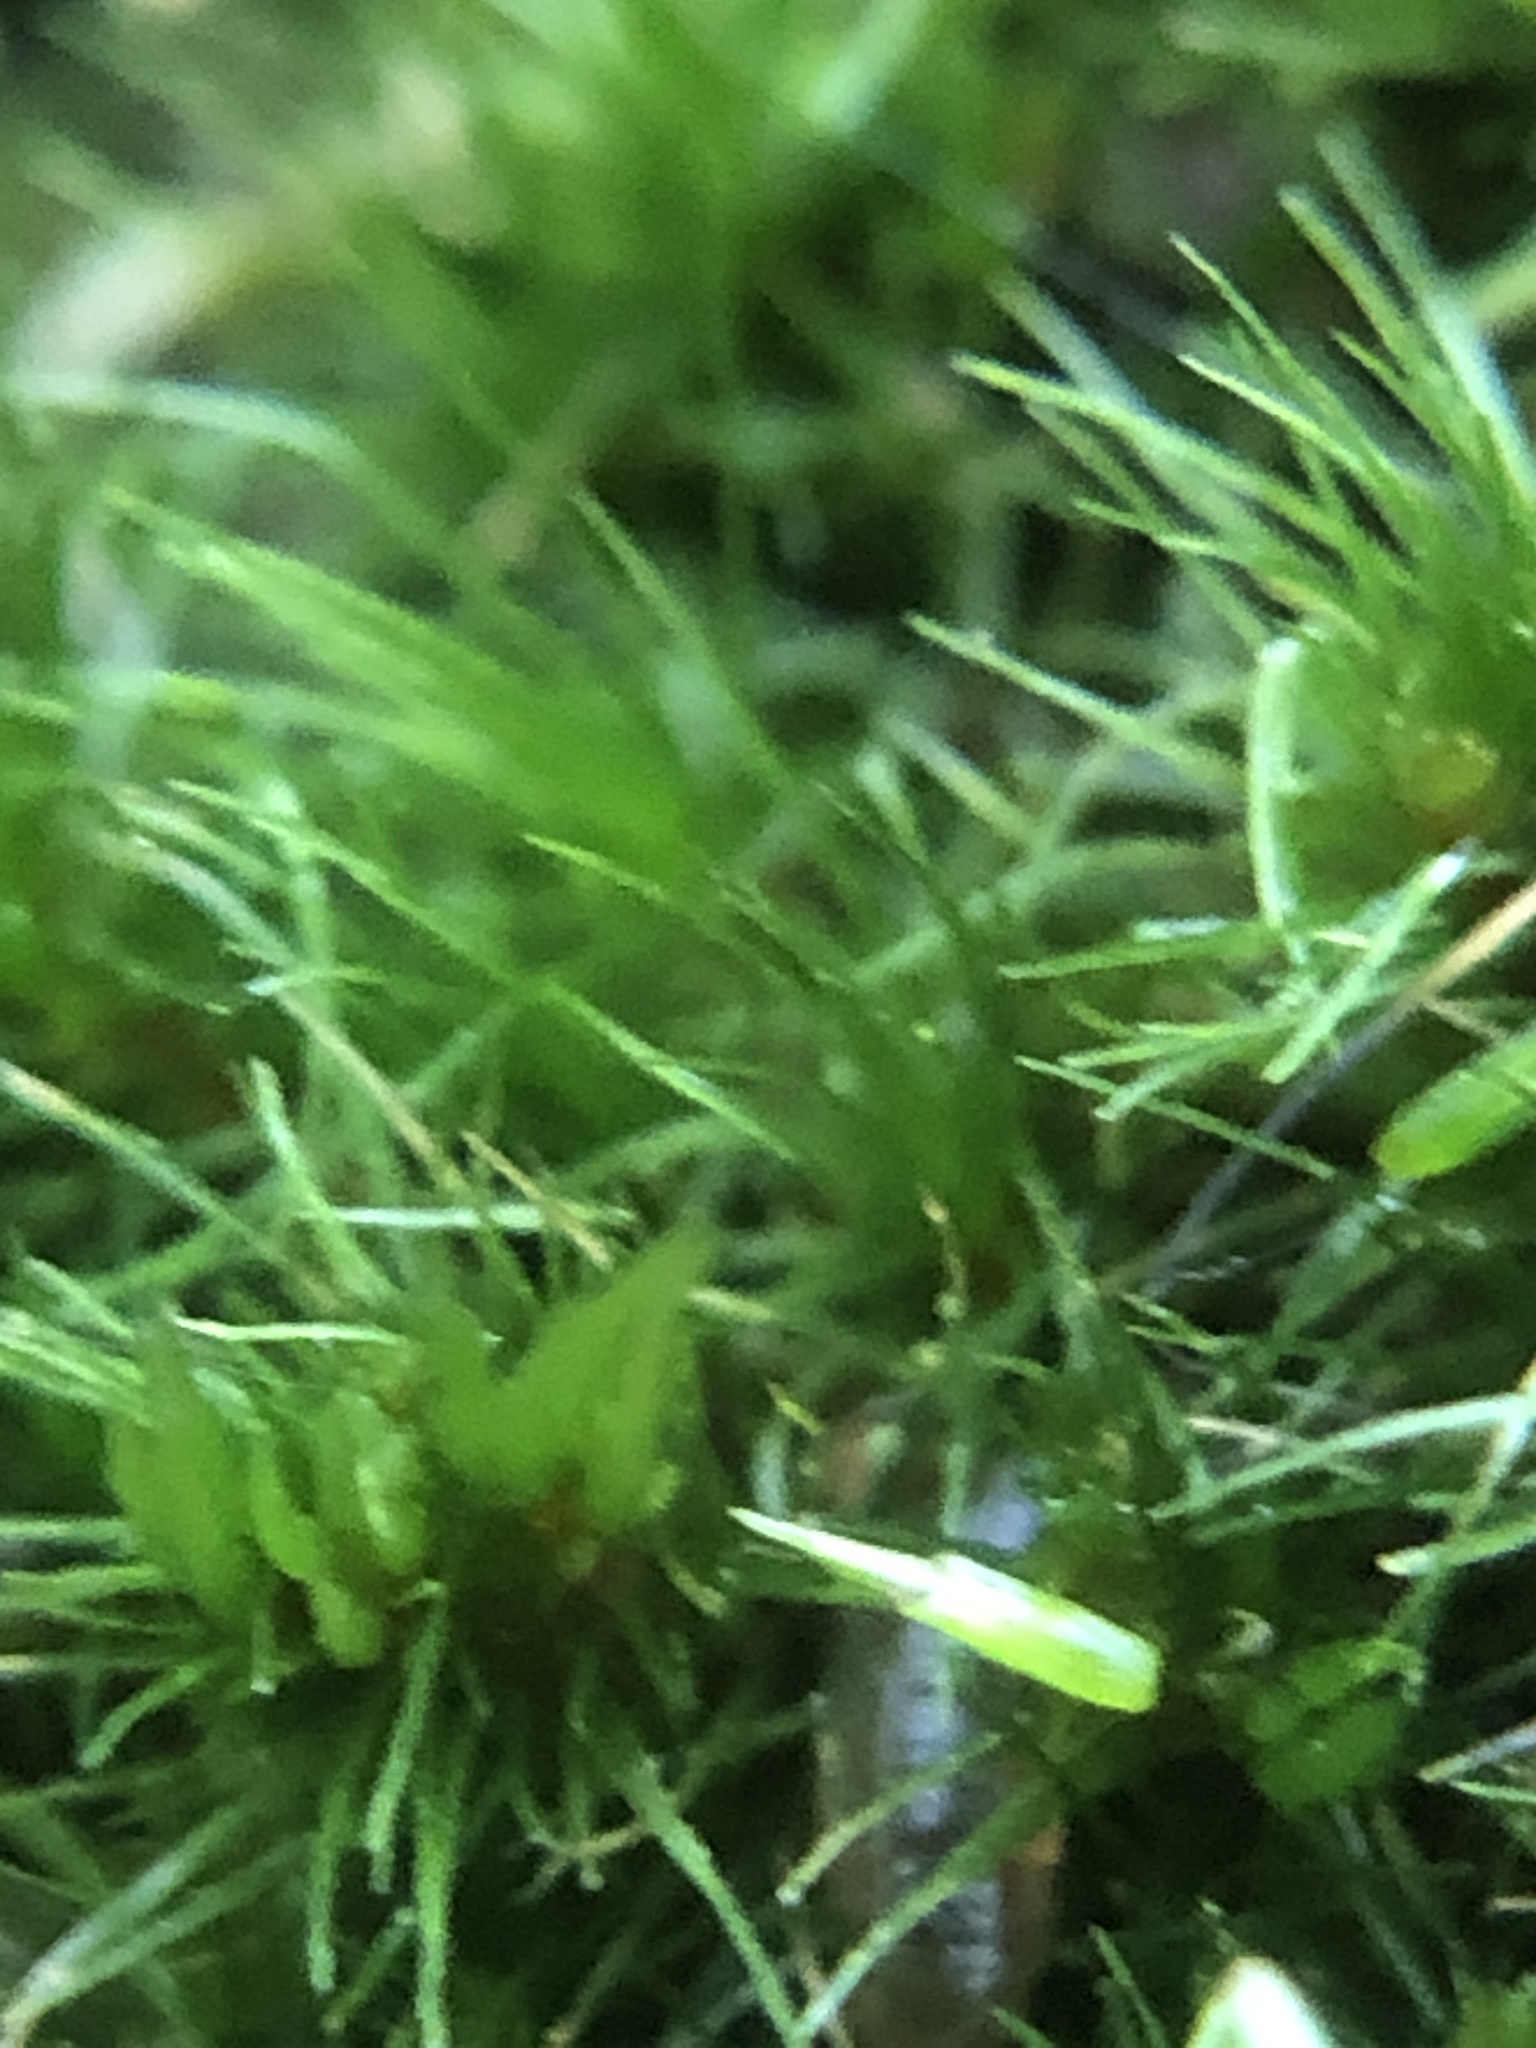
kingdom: Plantae
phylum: Bryophyta
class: Bryopsida
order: Dicranales
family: Leucobryaceae
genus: Campylopus
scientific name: Campylopus flexuosus
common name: Rusty swan-neck moss
